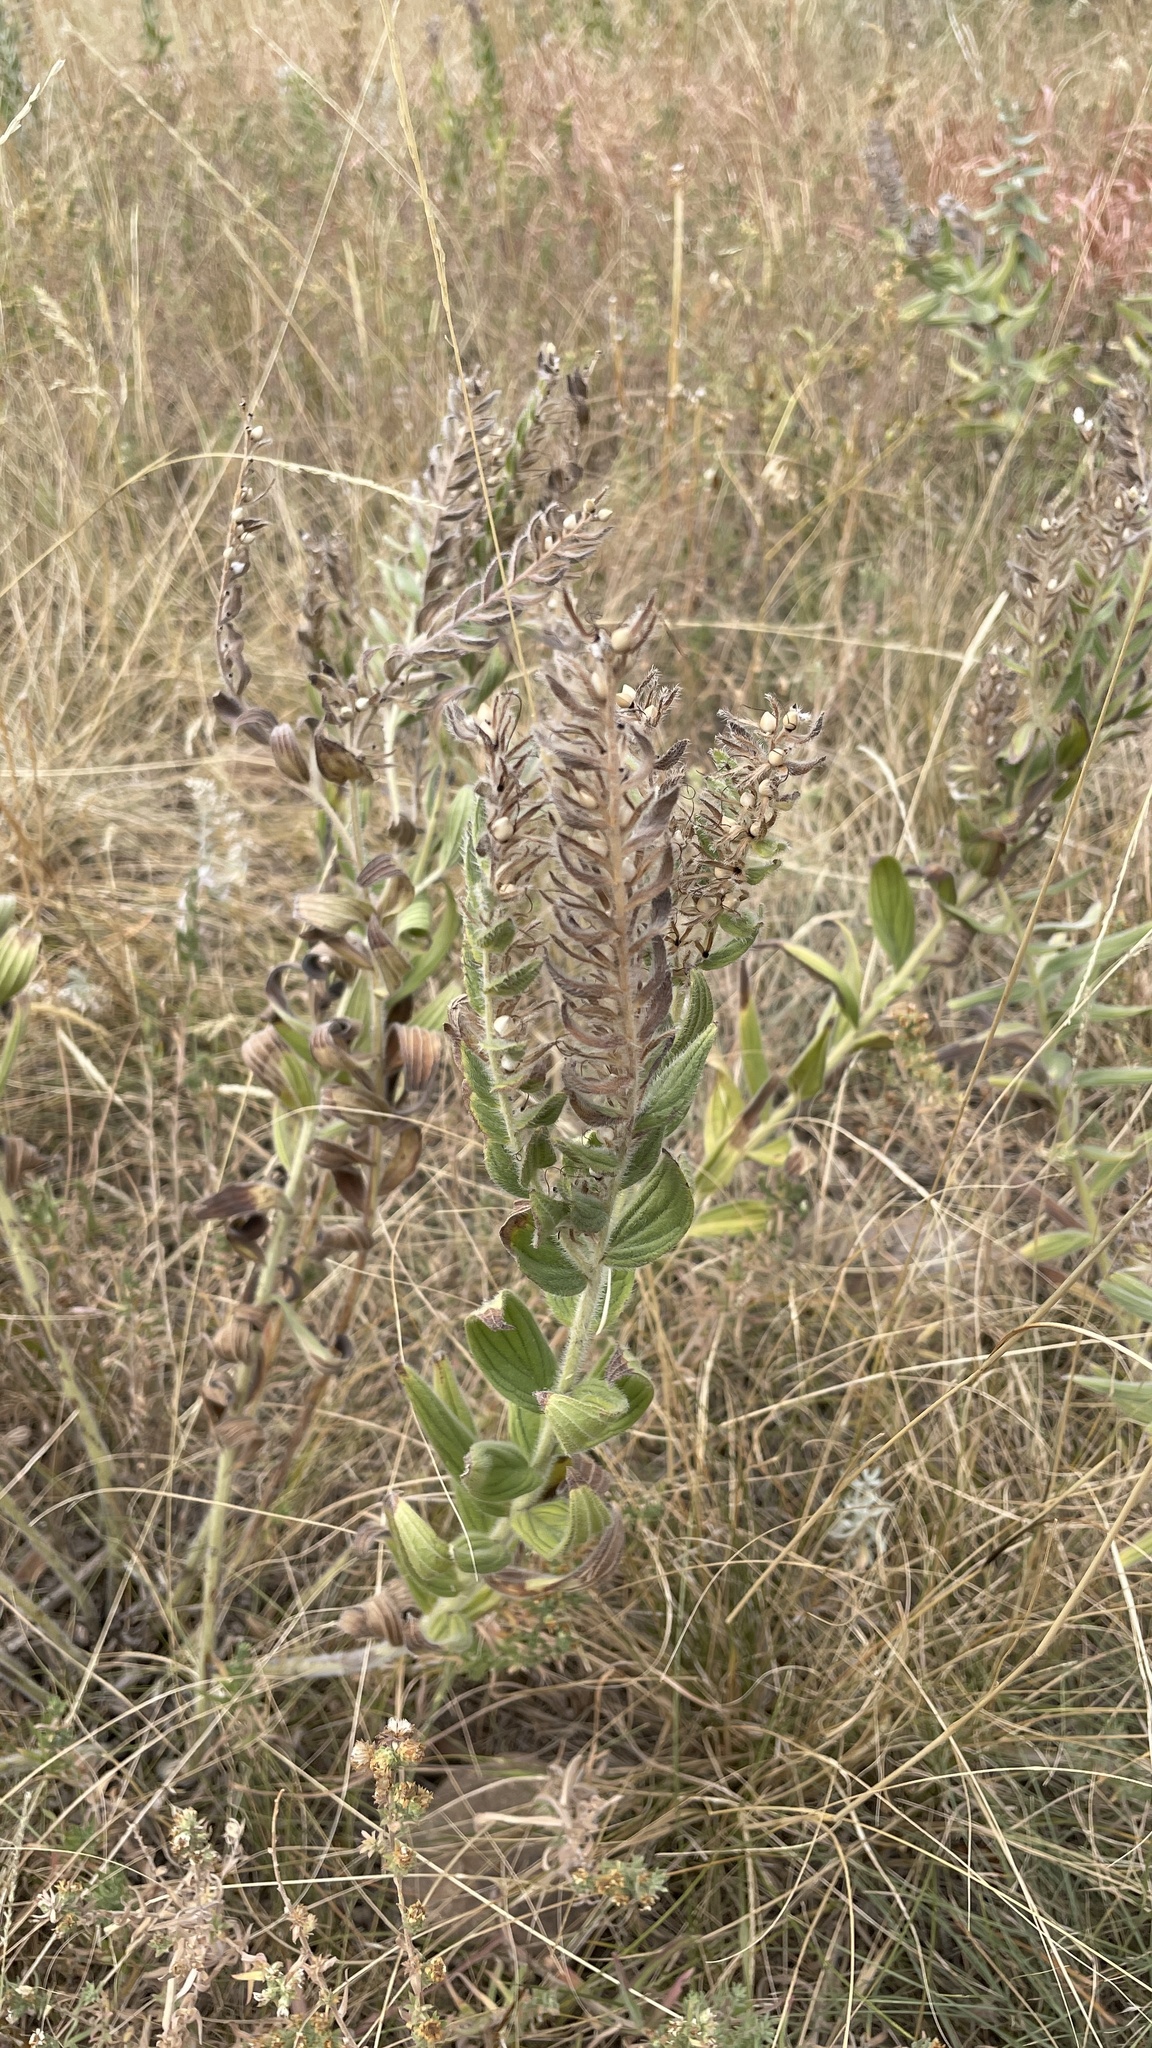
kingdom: Plantae
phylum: Tracheophyta
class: Magnoliopsida
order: Boraginales
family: Boraginaceae
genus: Lithospermum
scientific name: Lithospermum occidentale
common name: Western false gromwell
